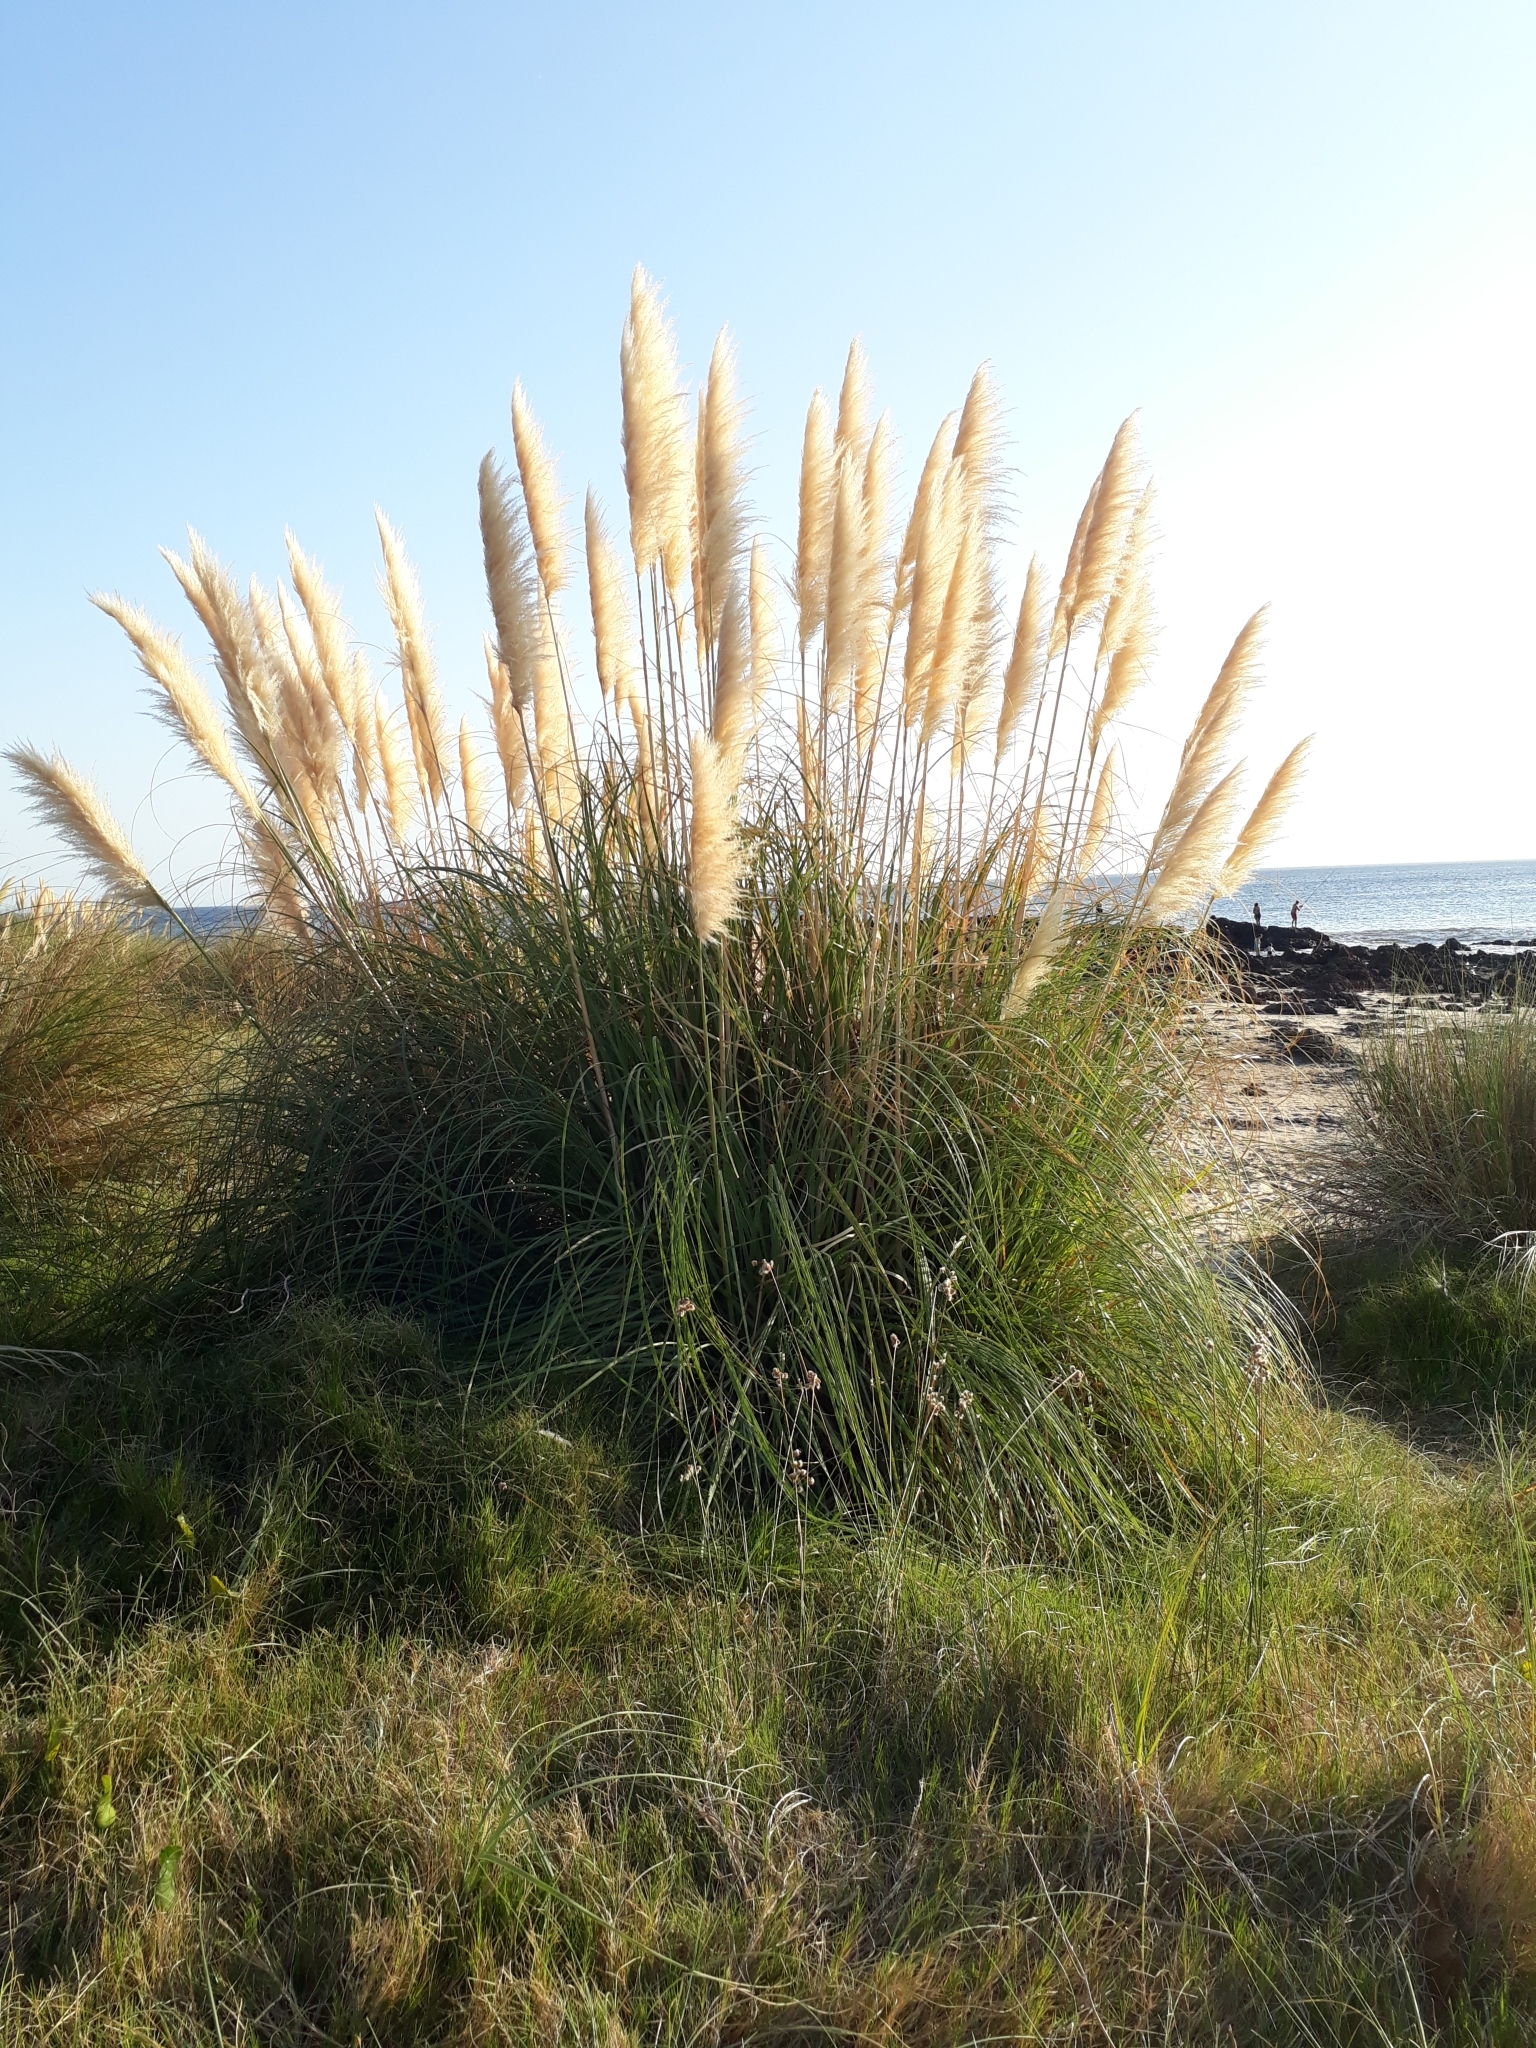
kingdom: Plantae
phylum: Tracheophyta
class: Liliopsida
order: Poales
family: Poaceae
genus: Cortaderia
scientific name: Cortaderia selloana
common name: Uruguayan pampas grass
